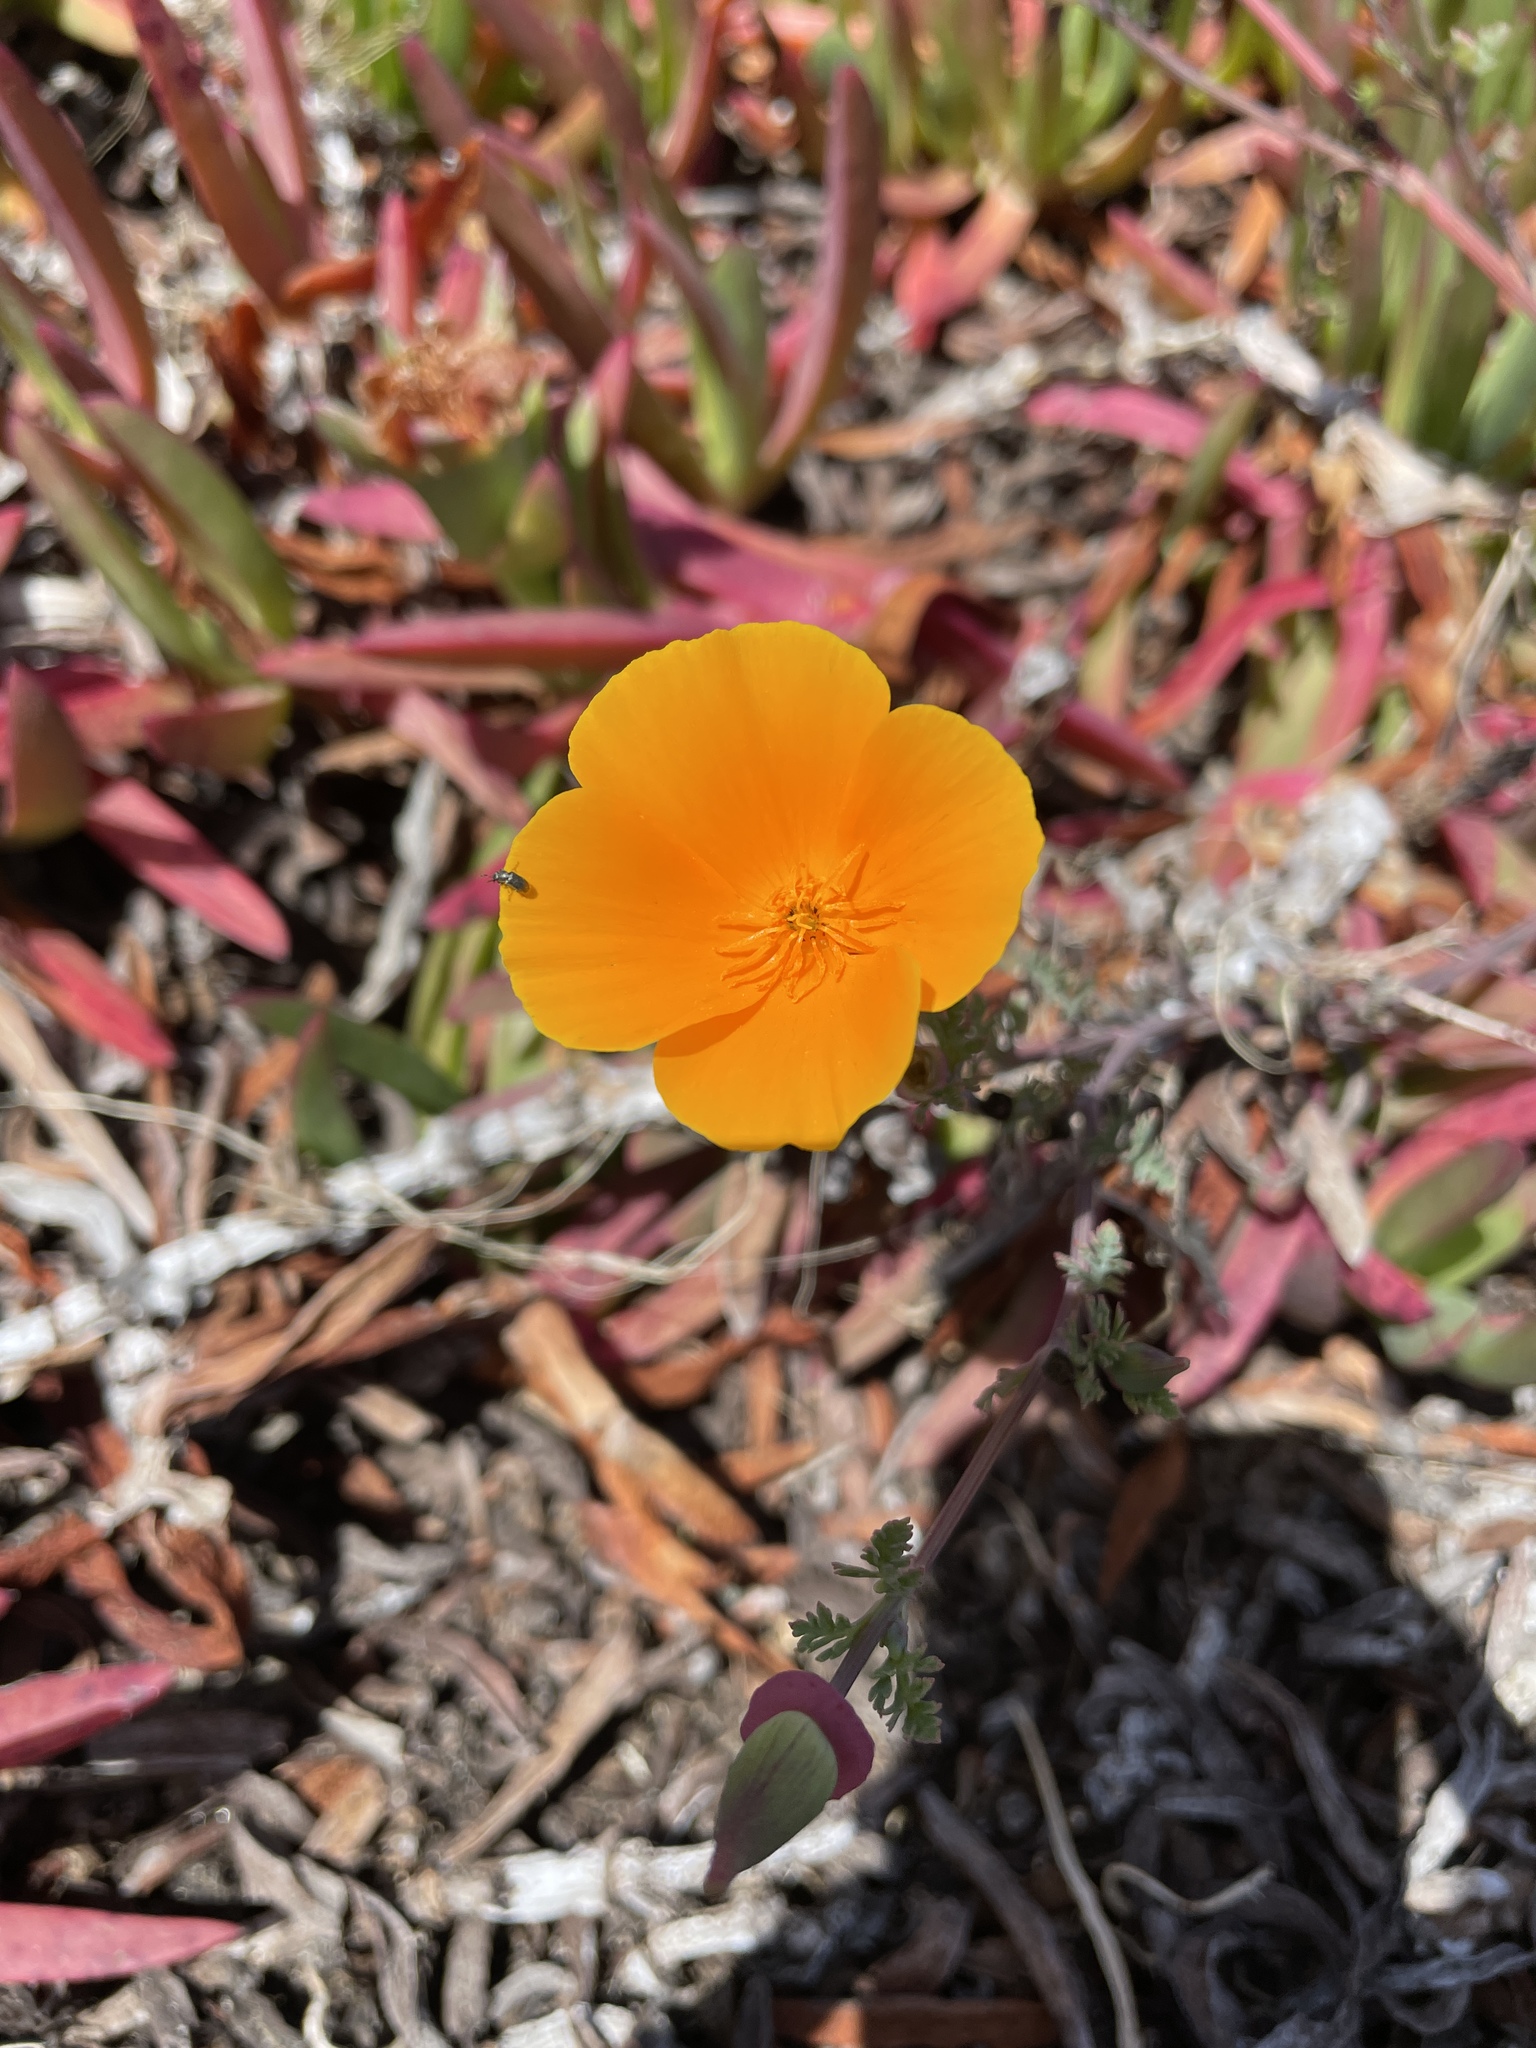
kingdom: Plantae
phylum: Tracheophyta
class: Magnoliopsida
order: Ranunculales
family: Papaveraceae
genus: Eschscholzia
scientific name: Eschscholzia californica
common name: California poppy
